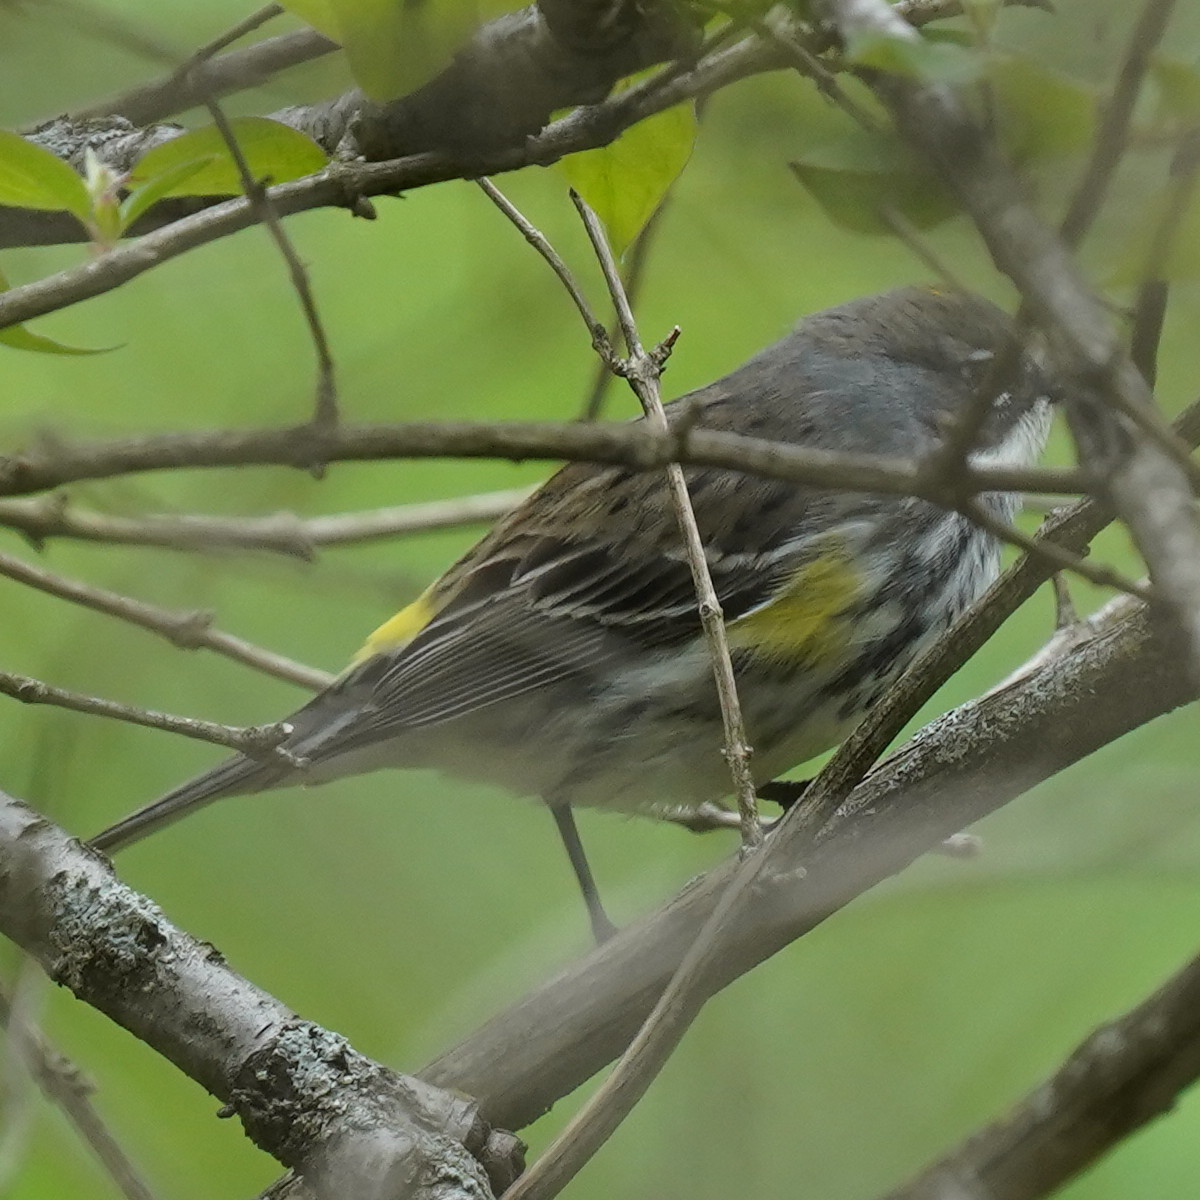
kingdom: Animalia
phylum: Chordata
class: Aves
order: Passeriformes
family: Parulidae
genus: Setophaga
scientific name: Setophaga coronata
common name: Myrtle warbler
